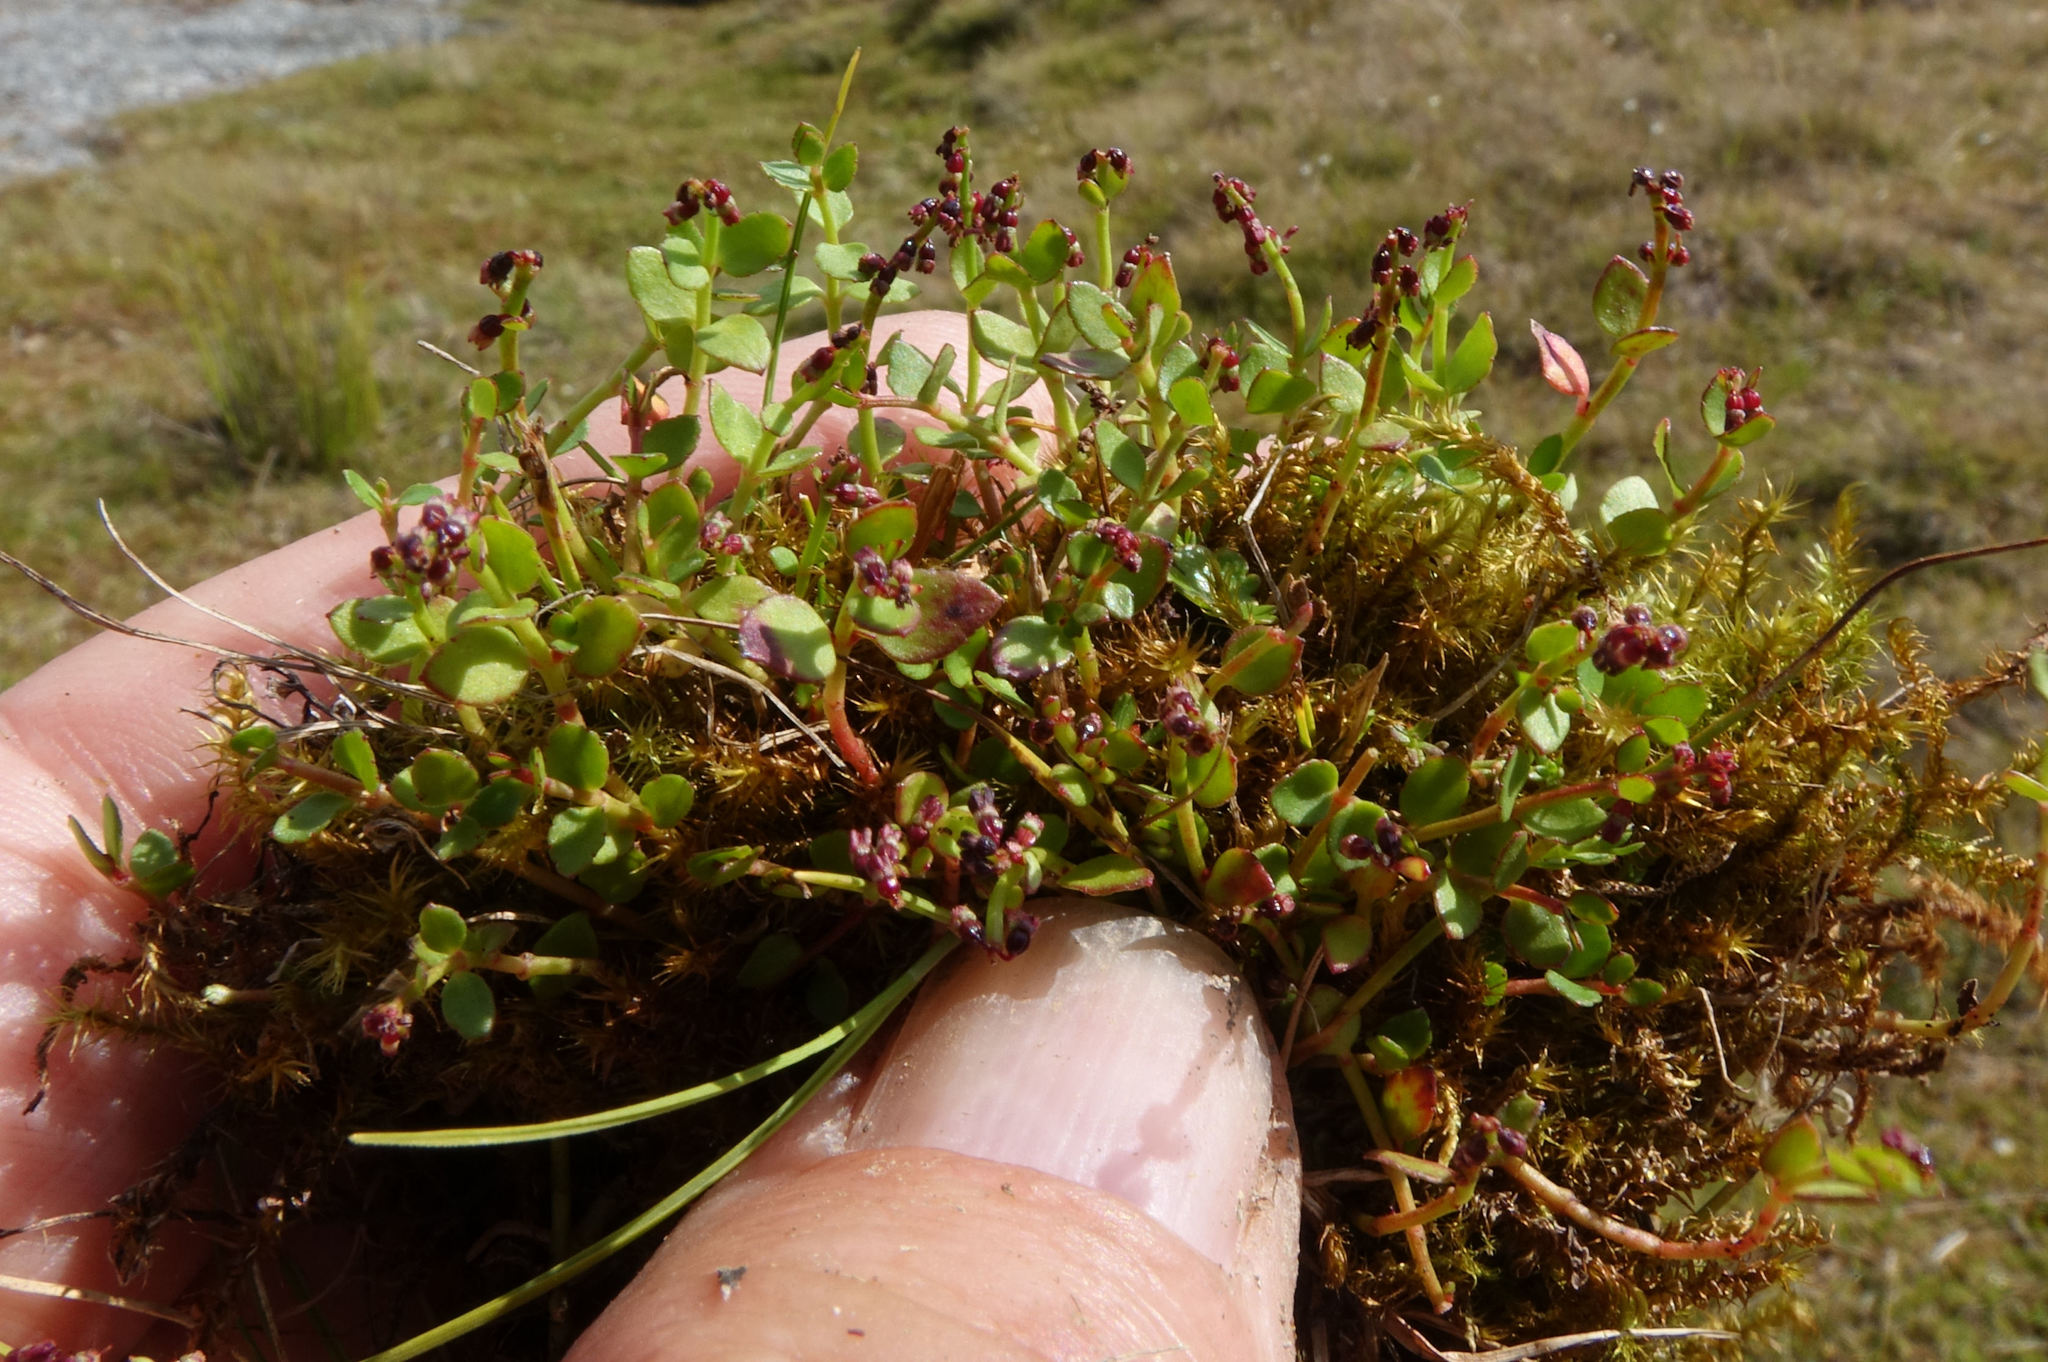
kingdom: Plantae
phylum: Tracheophyta
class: Magnoliopsida
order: Saxifragales
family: Haloragaceae
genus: Gonocarpus
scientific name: Gonocarpus micranthus
